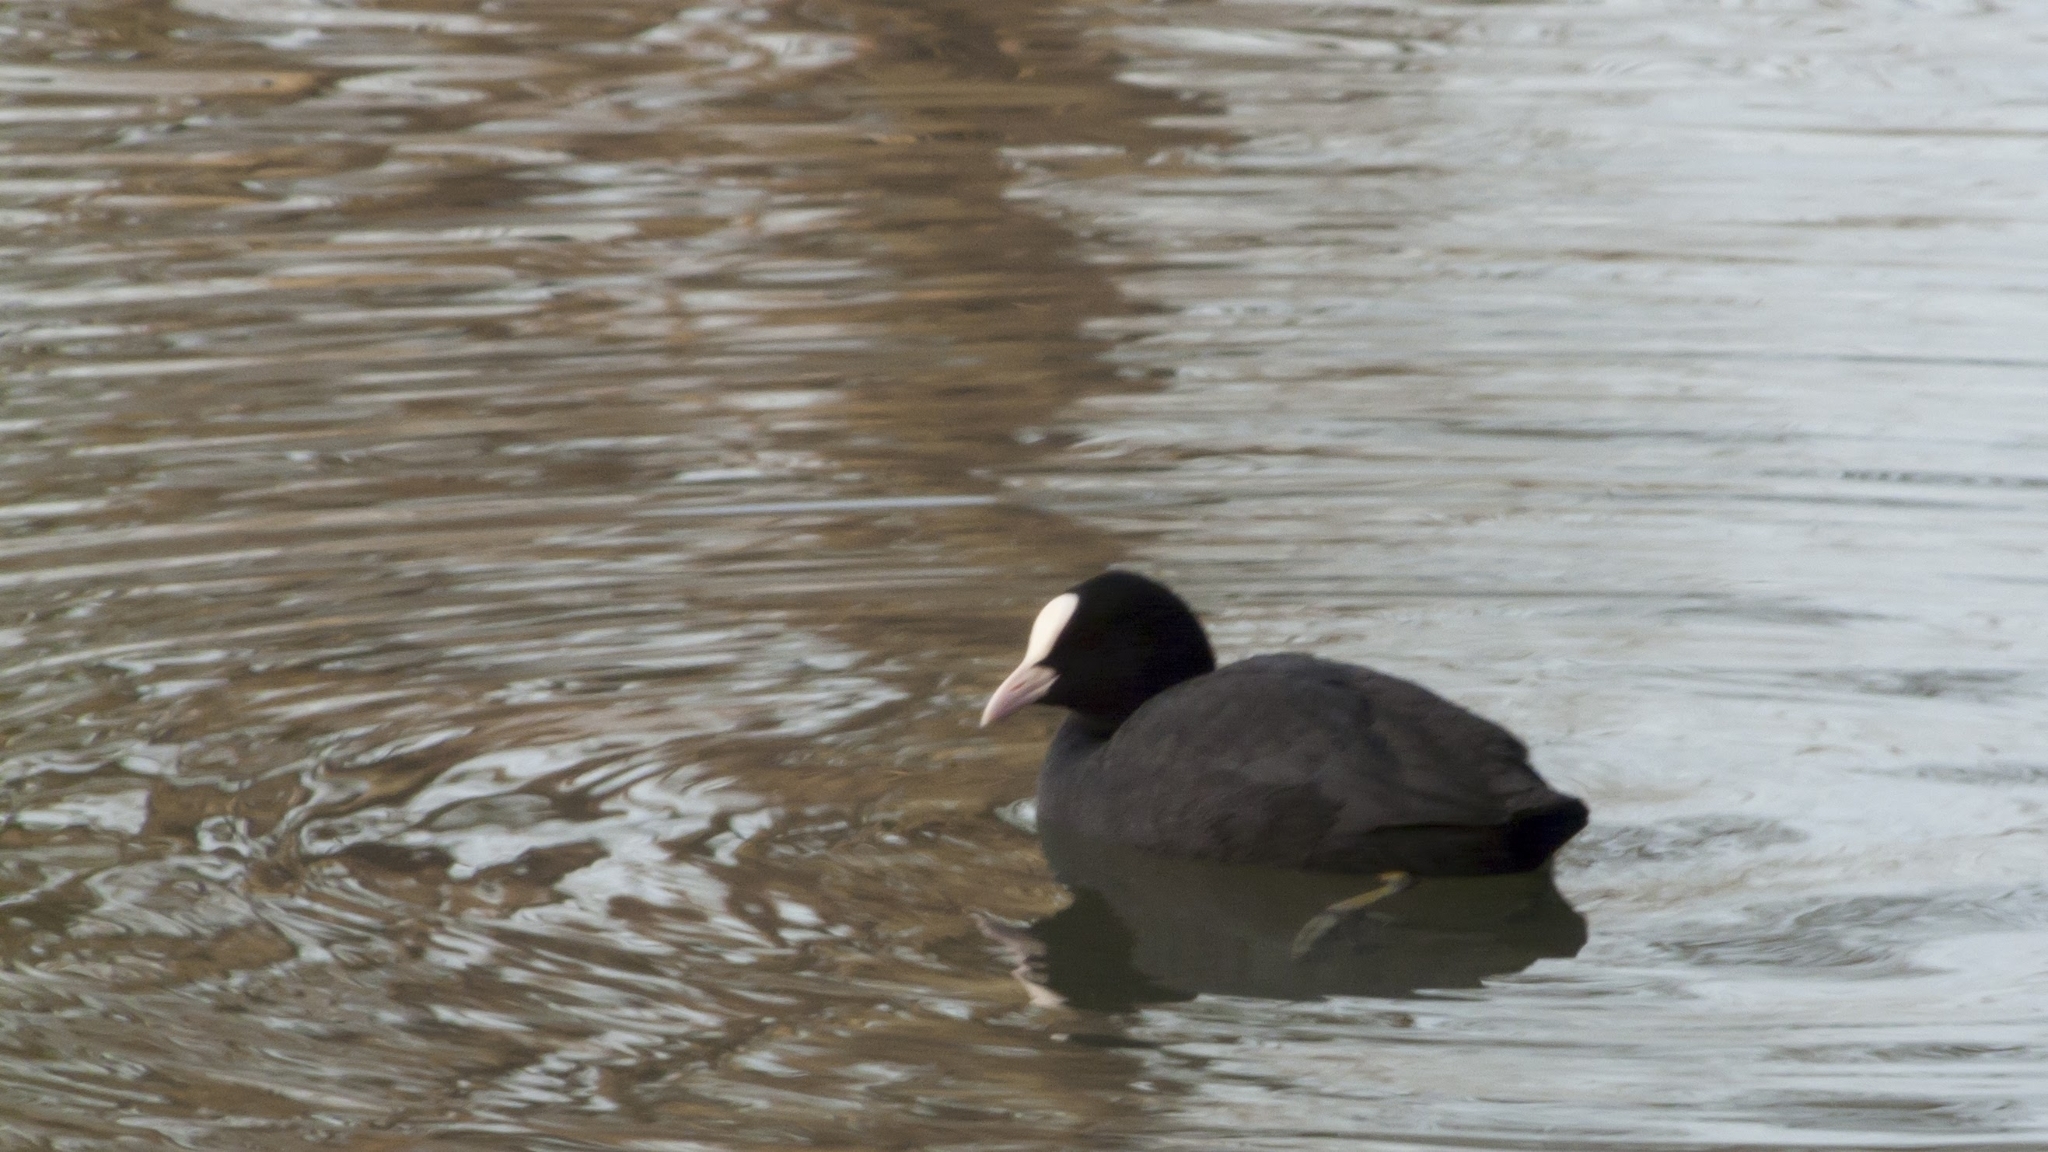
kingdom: Animalia
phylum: Chordata
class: Aves
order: Gruiformes
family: Rallidae
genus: Fulica
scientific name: Fulica atra
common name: Eurasian coot
